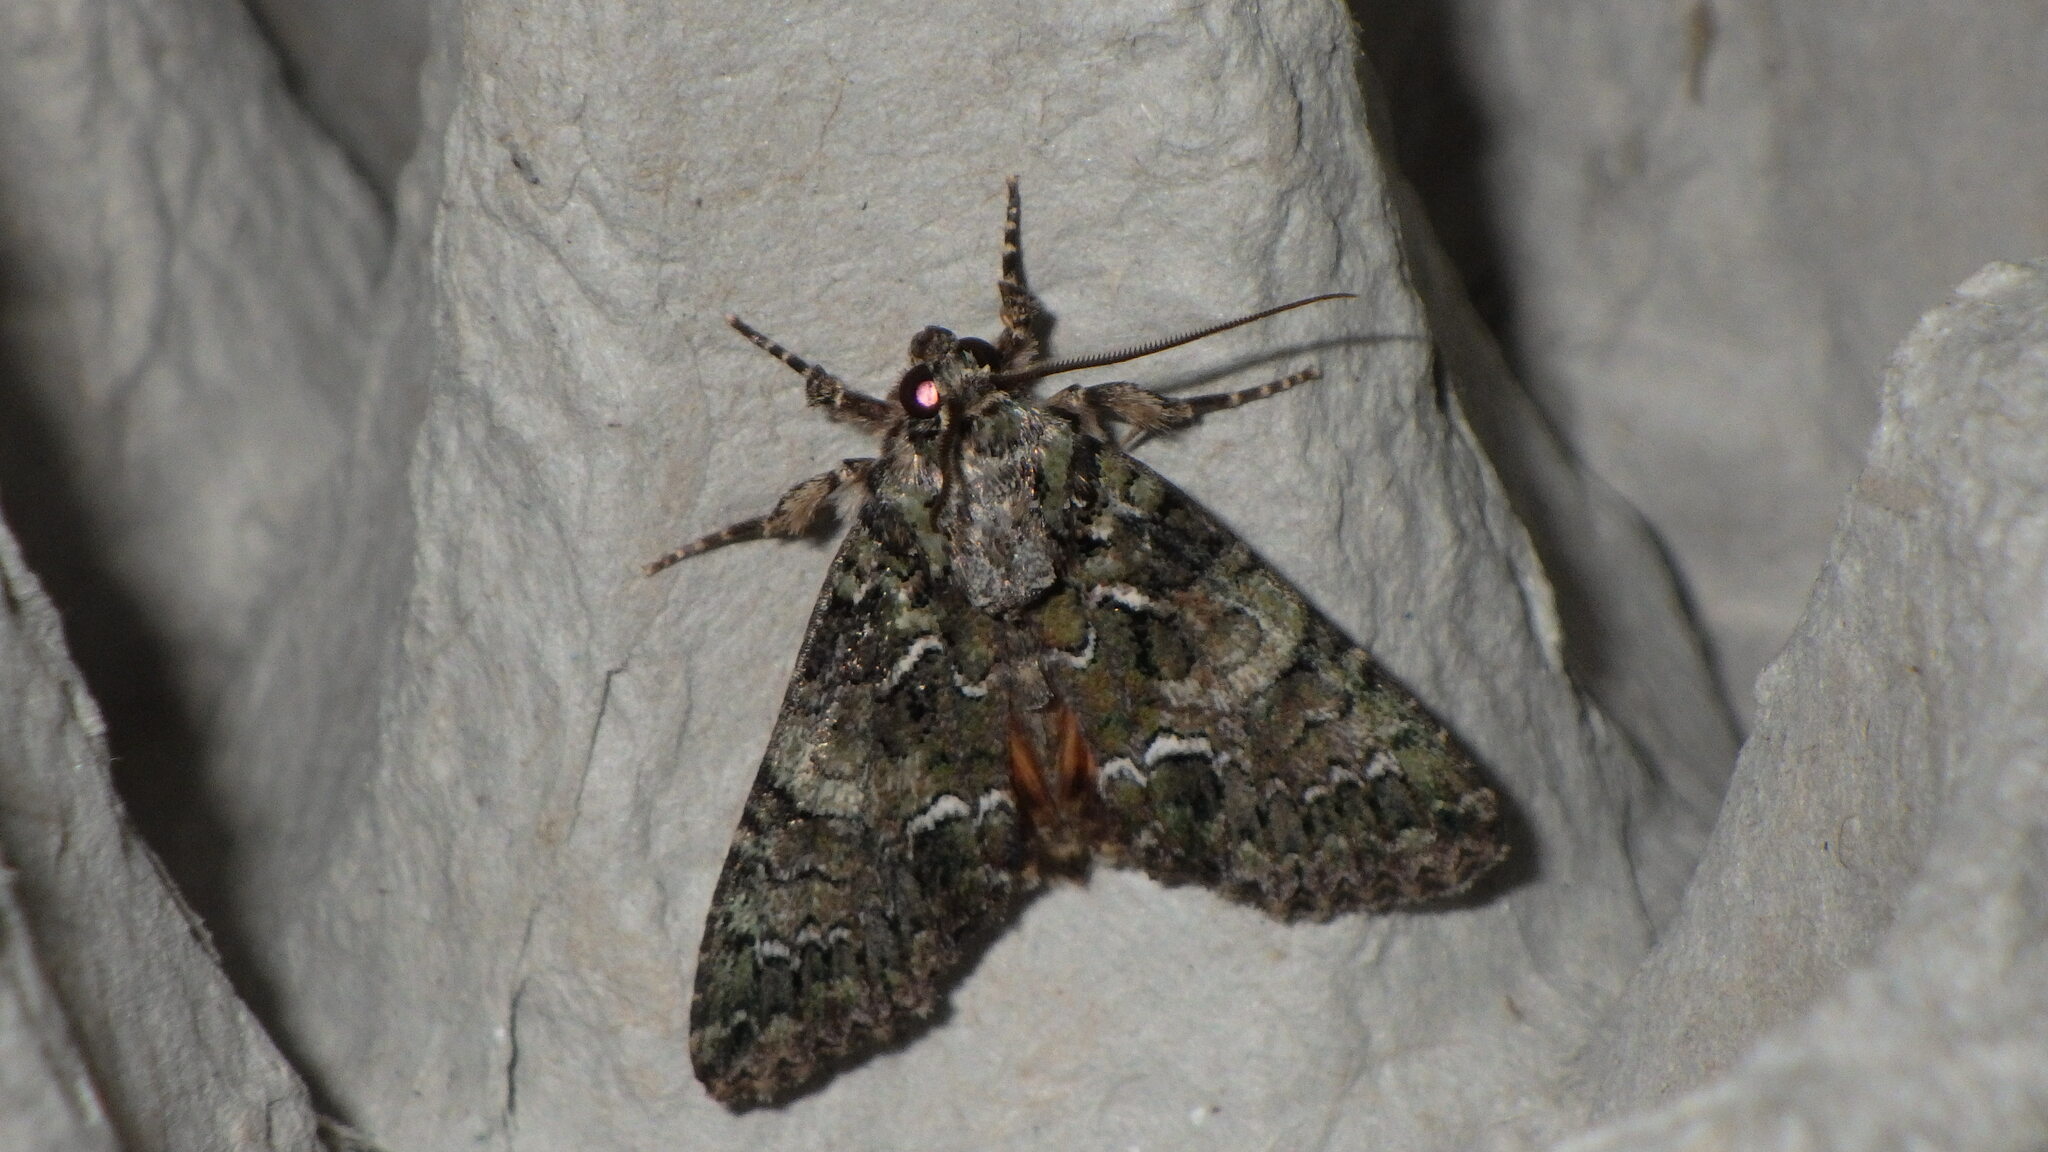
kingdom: Animalia
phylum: Arthropoda
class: Insecta
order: Lepidoptera
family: Noctuidae
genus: Polyphaenis
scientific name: Polyphaenis sericata
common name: Guernsey underwing
